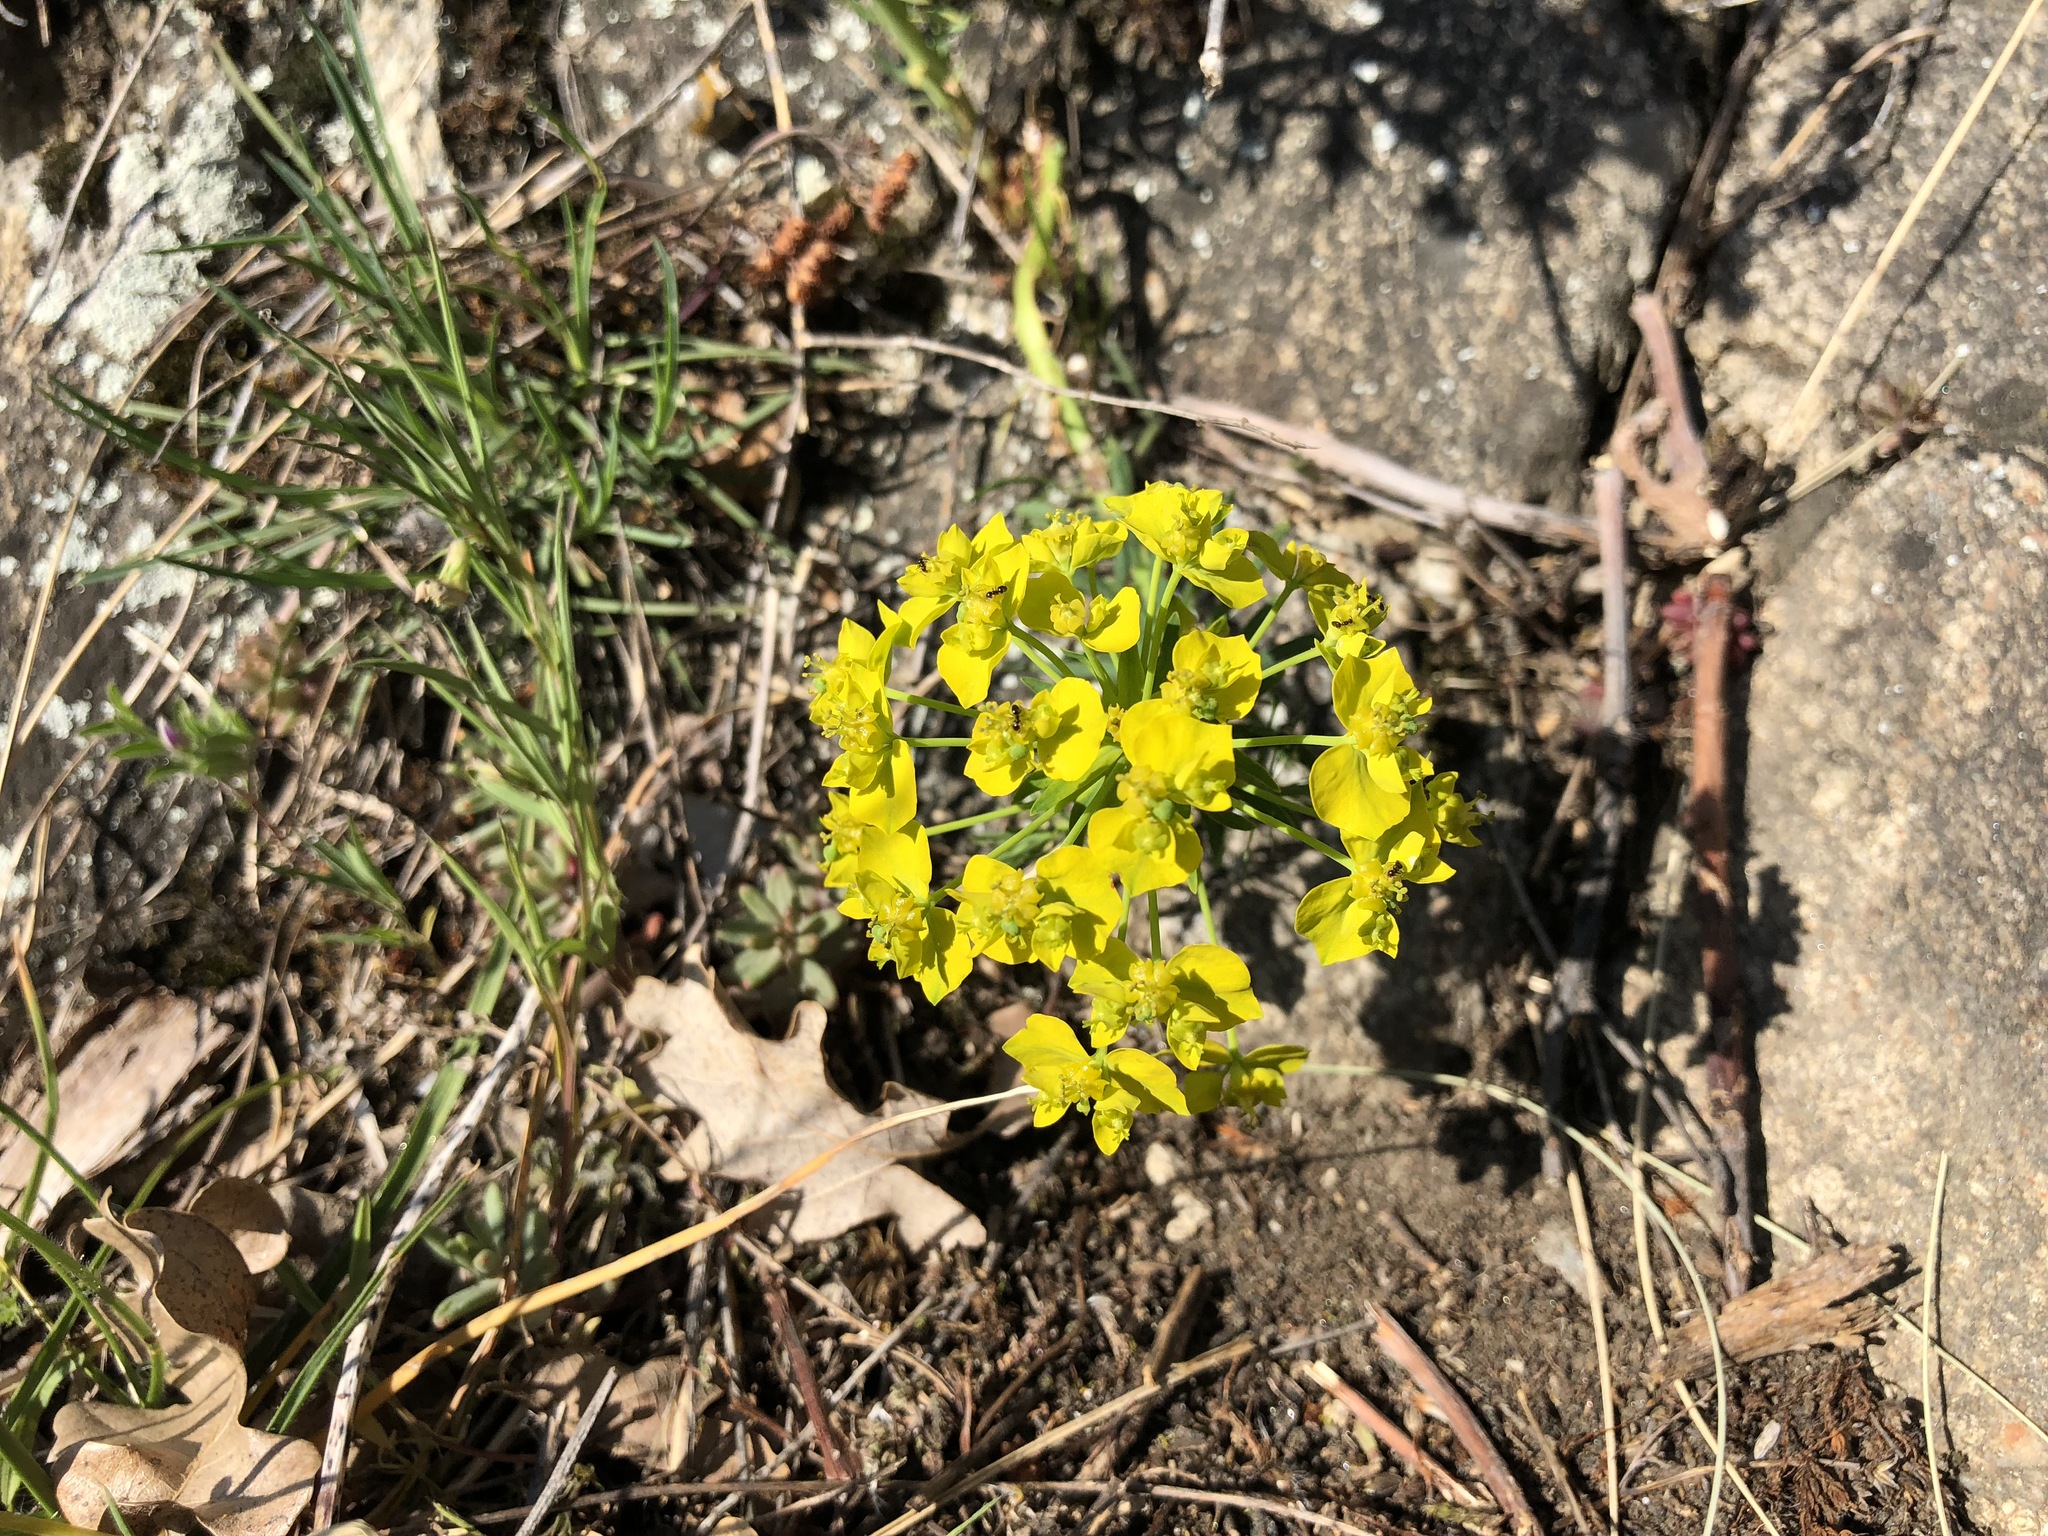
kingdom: Plantae
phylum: Tracheophyta
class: Magnoliopsida
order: Malpighiales
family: Euphorbiaceae
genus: Euphorbia
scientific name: Euphorbia cyparissias
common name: Cypress spurge
